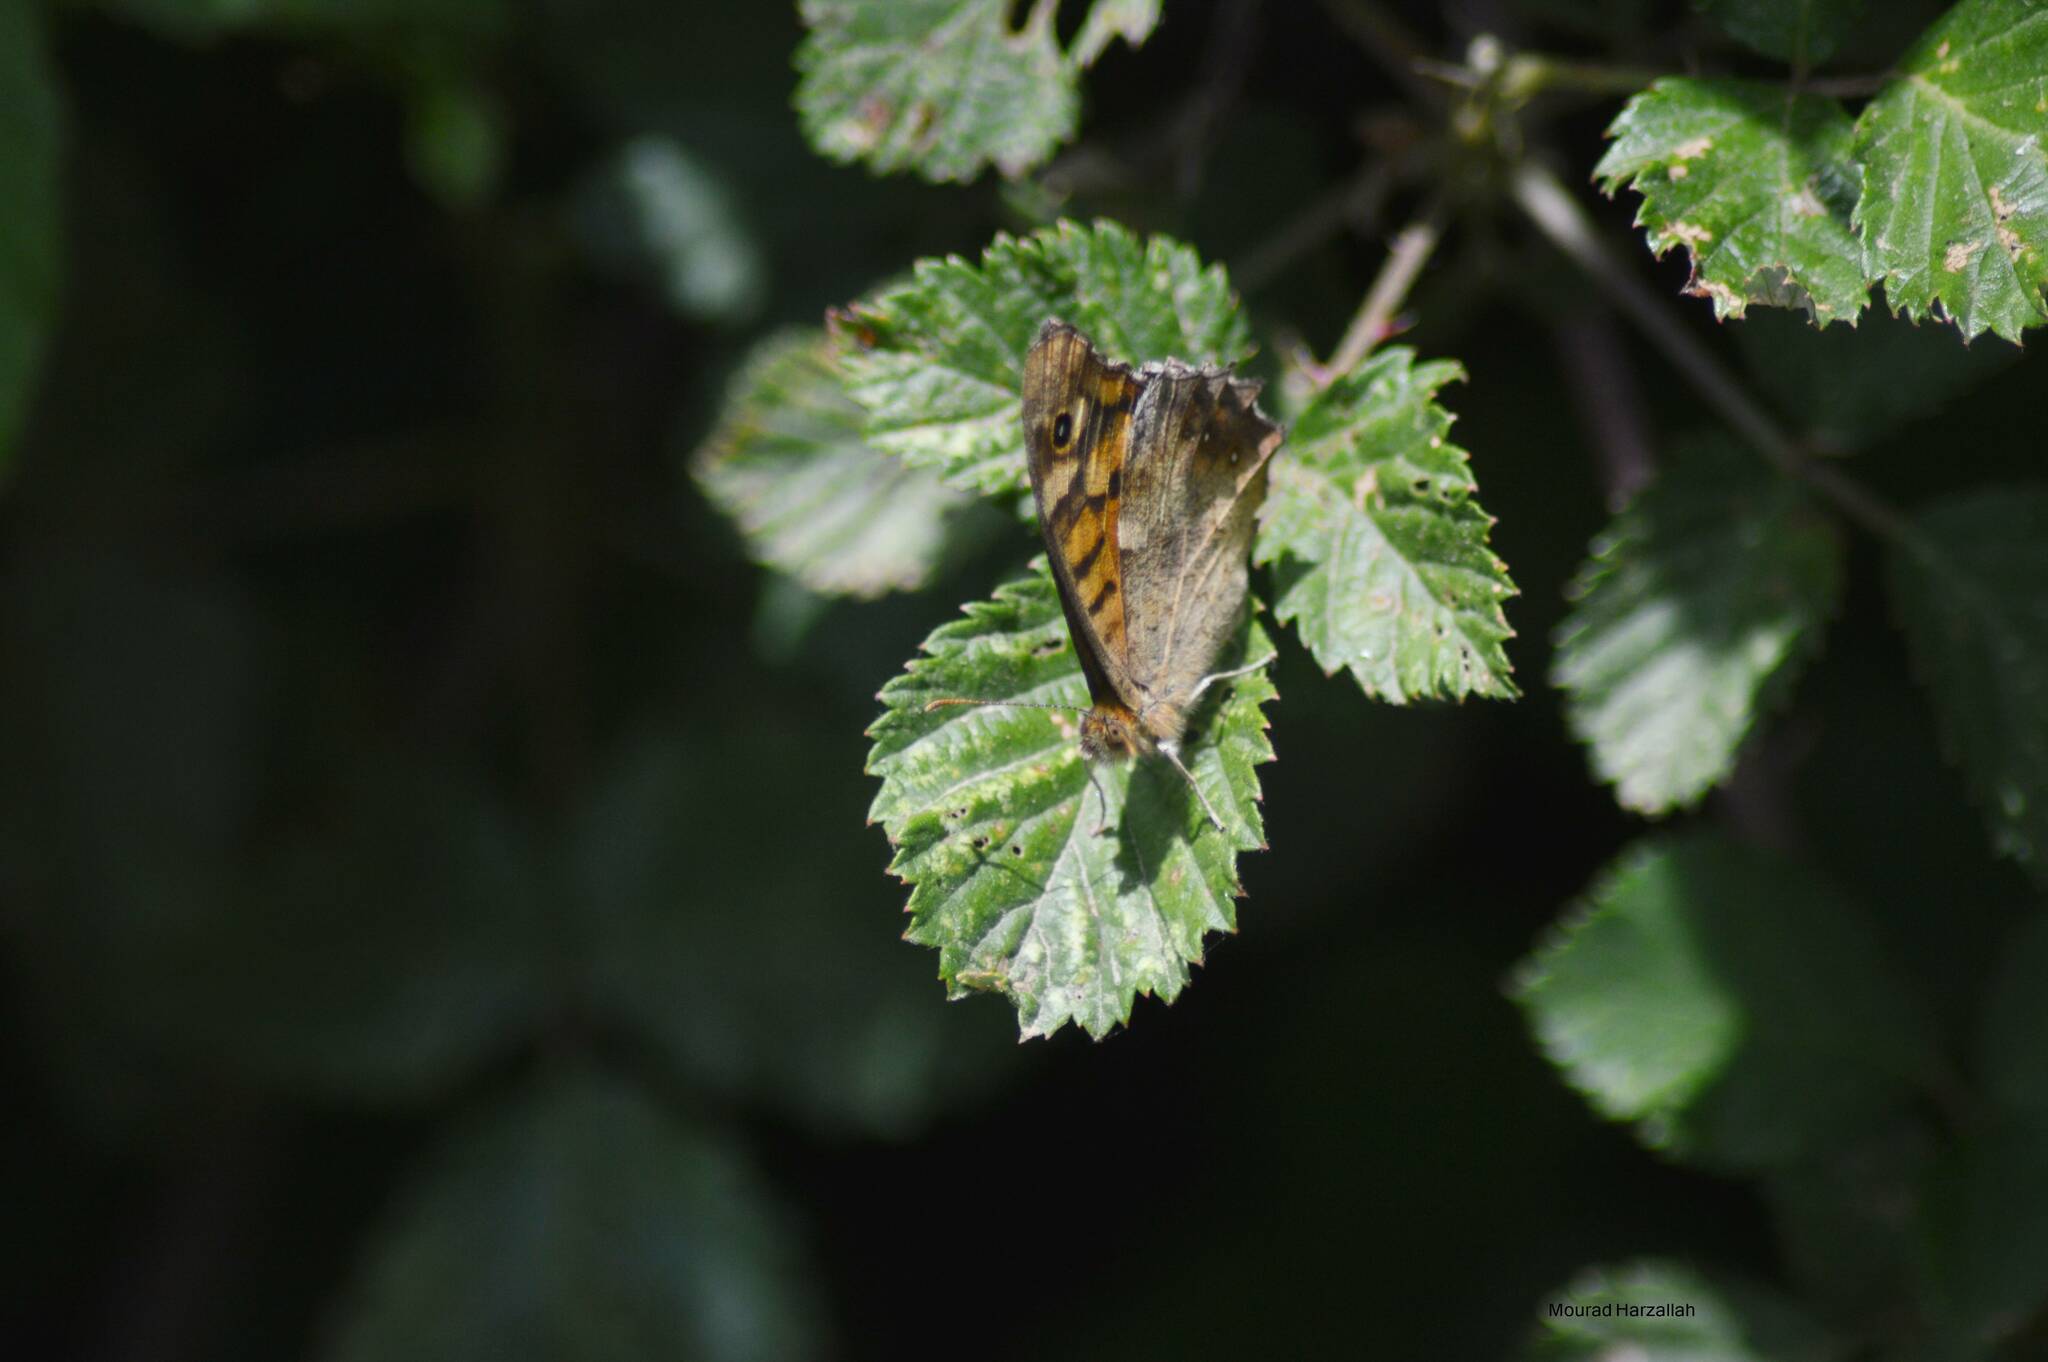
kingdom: Animalia
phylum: Arthropoda
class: Insecta
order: Lepidoptera
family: Nymphalidae
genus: Pararge
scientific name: Pararge aegeria
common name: Speckled wood
